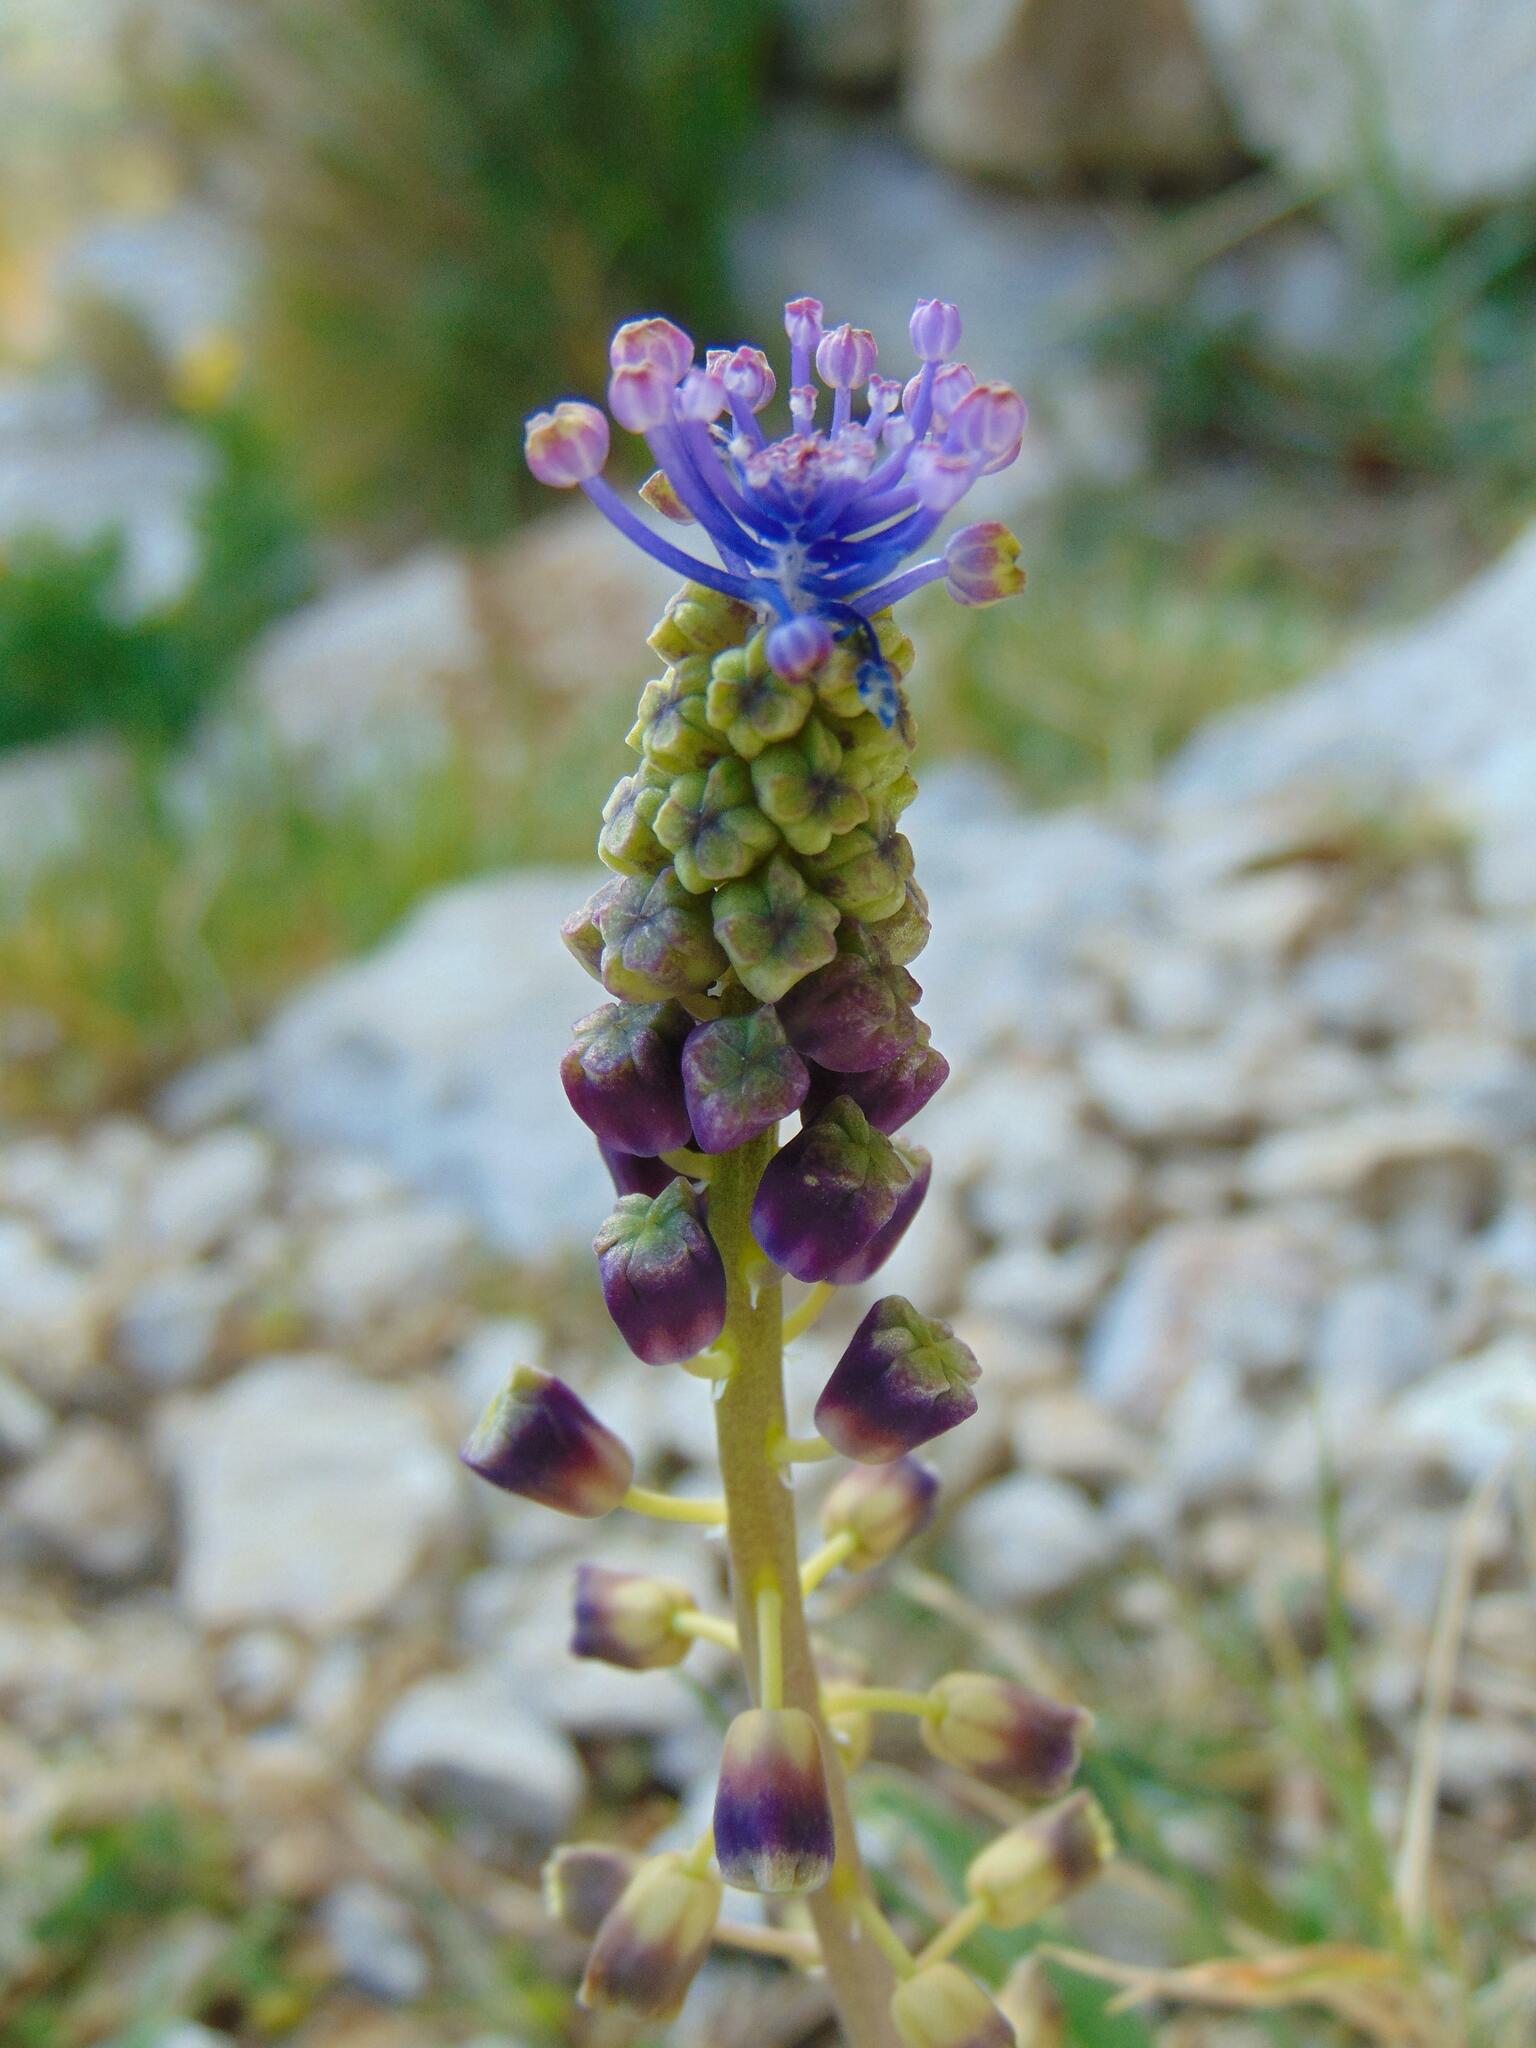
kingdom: Plantae
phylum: Tracheophyta
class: Liliopsida
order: Asparagales
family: Asparagaceae
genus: Muscari
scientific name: Muscari comosum
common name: Tassel hyacinth
